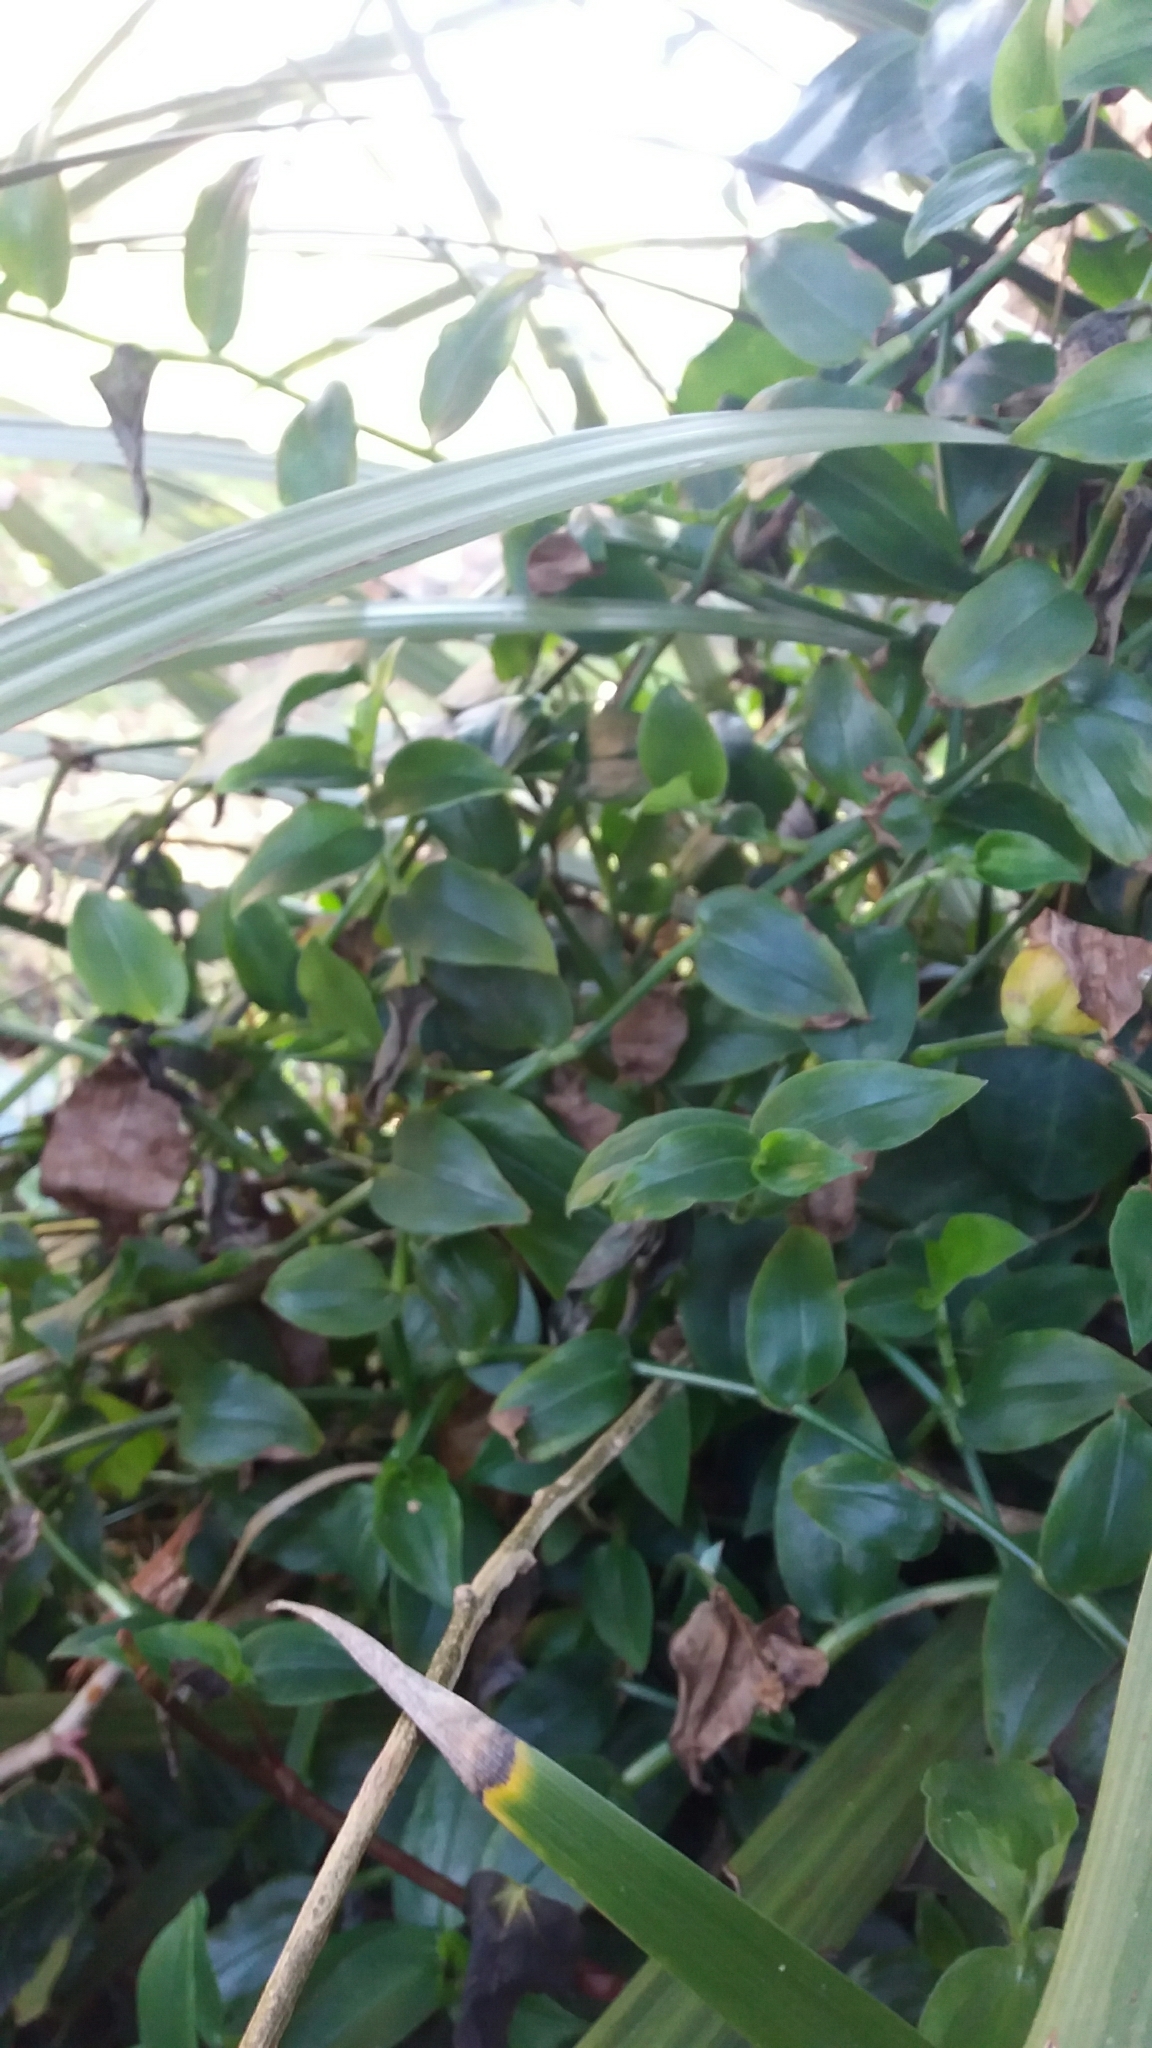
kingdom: Plantae
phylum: Tracheophyta
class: Liliopsida
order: Commelinales
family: Commelinaceae
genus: Tradescantia
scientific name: Tradescantia fluminensis
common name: Wandering-jew
